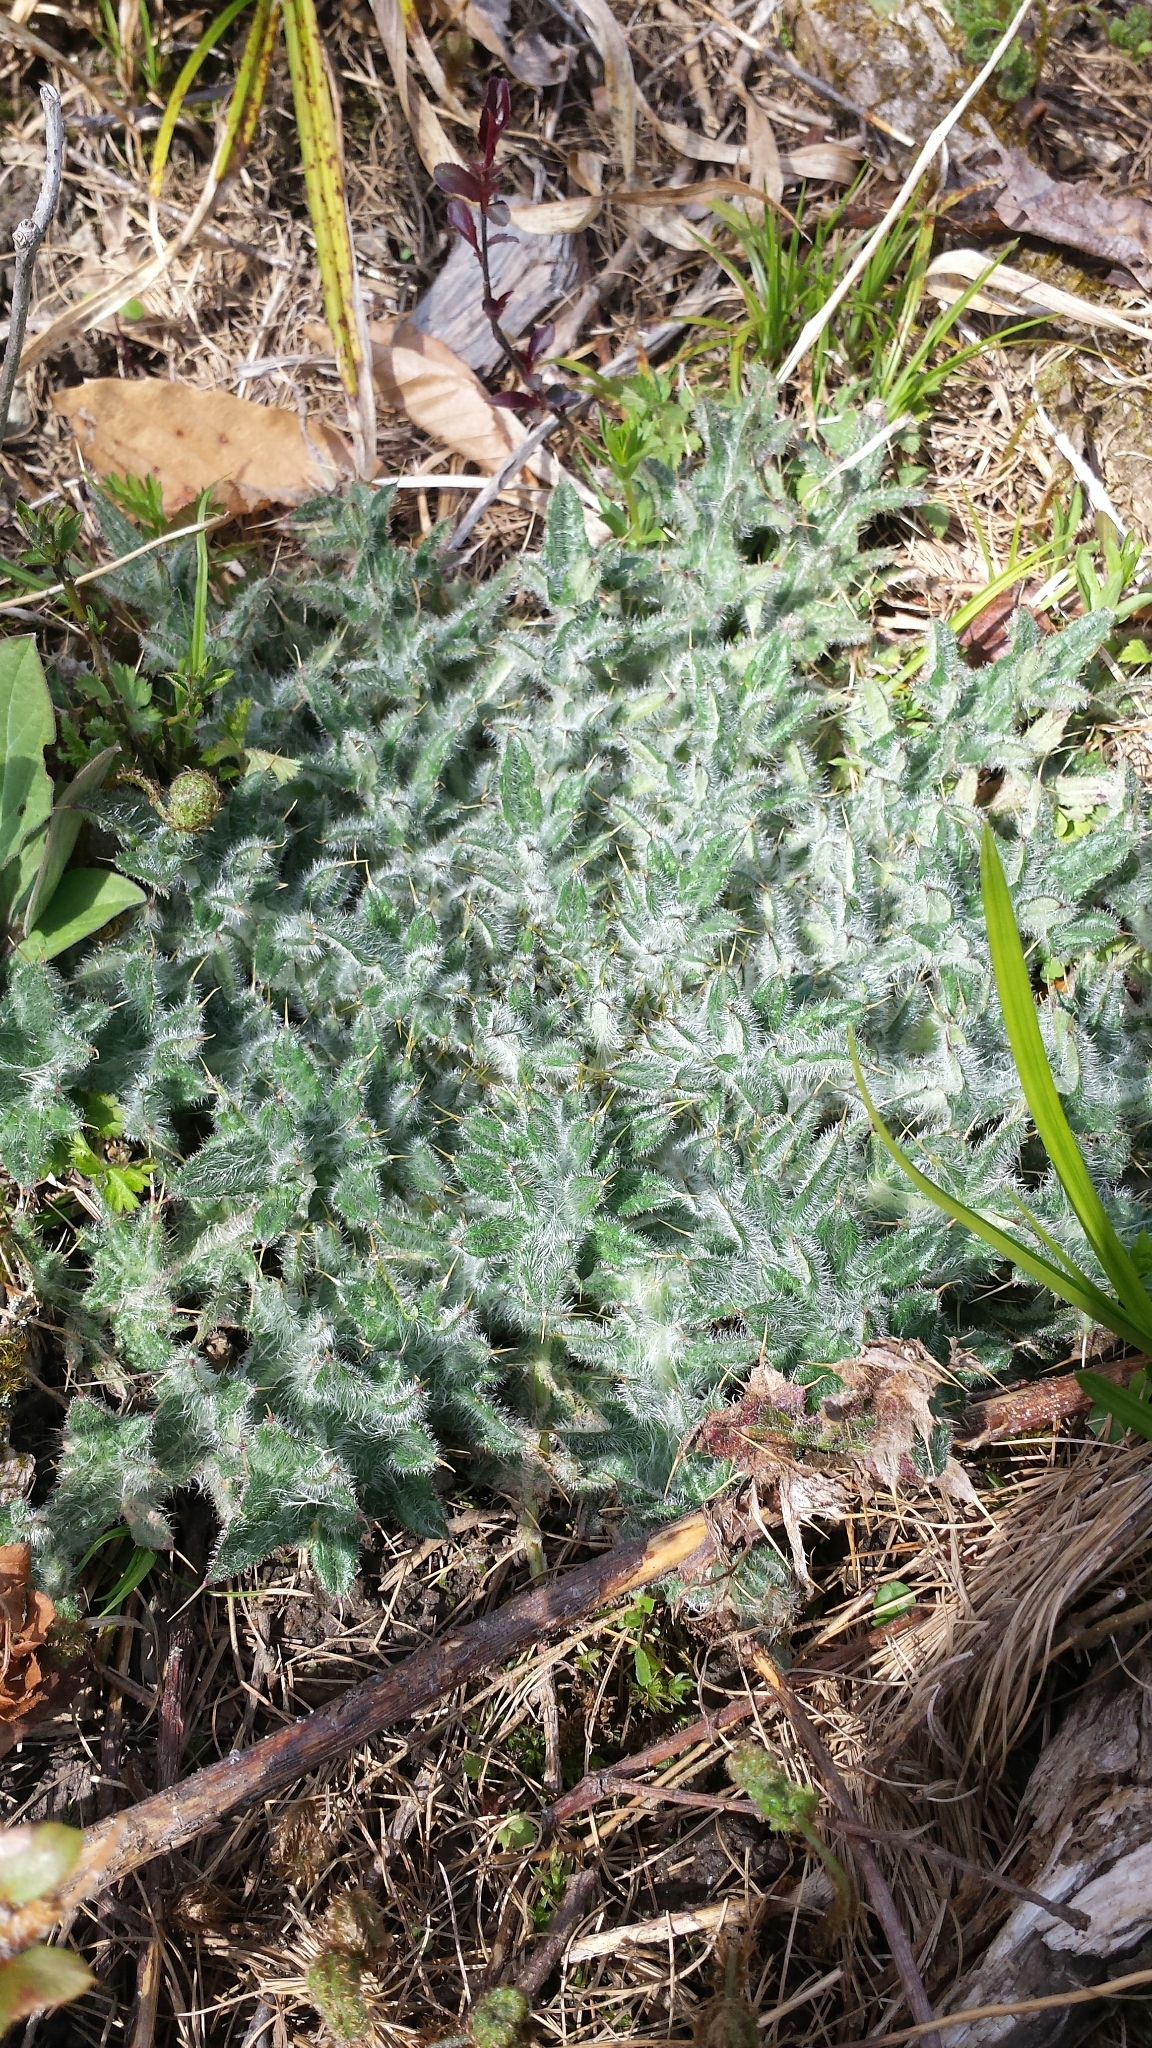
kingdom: Plantae
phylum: Tracheophyta
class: Magnoliopsida
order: Asterales
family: Asteraceae
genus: Cirsium
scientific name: Cirsium vulgare
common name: Bull thistle
